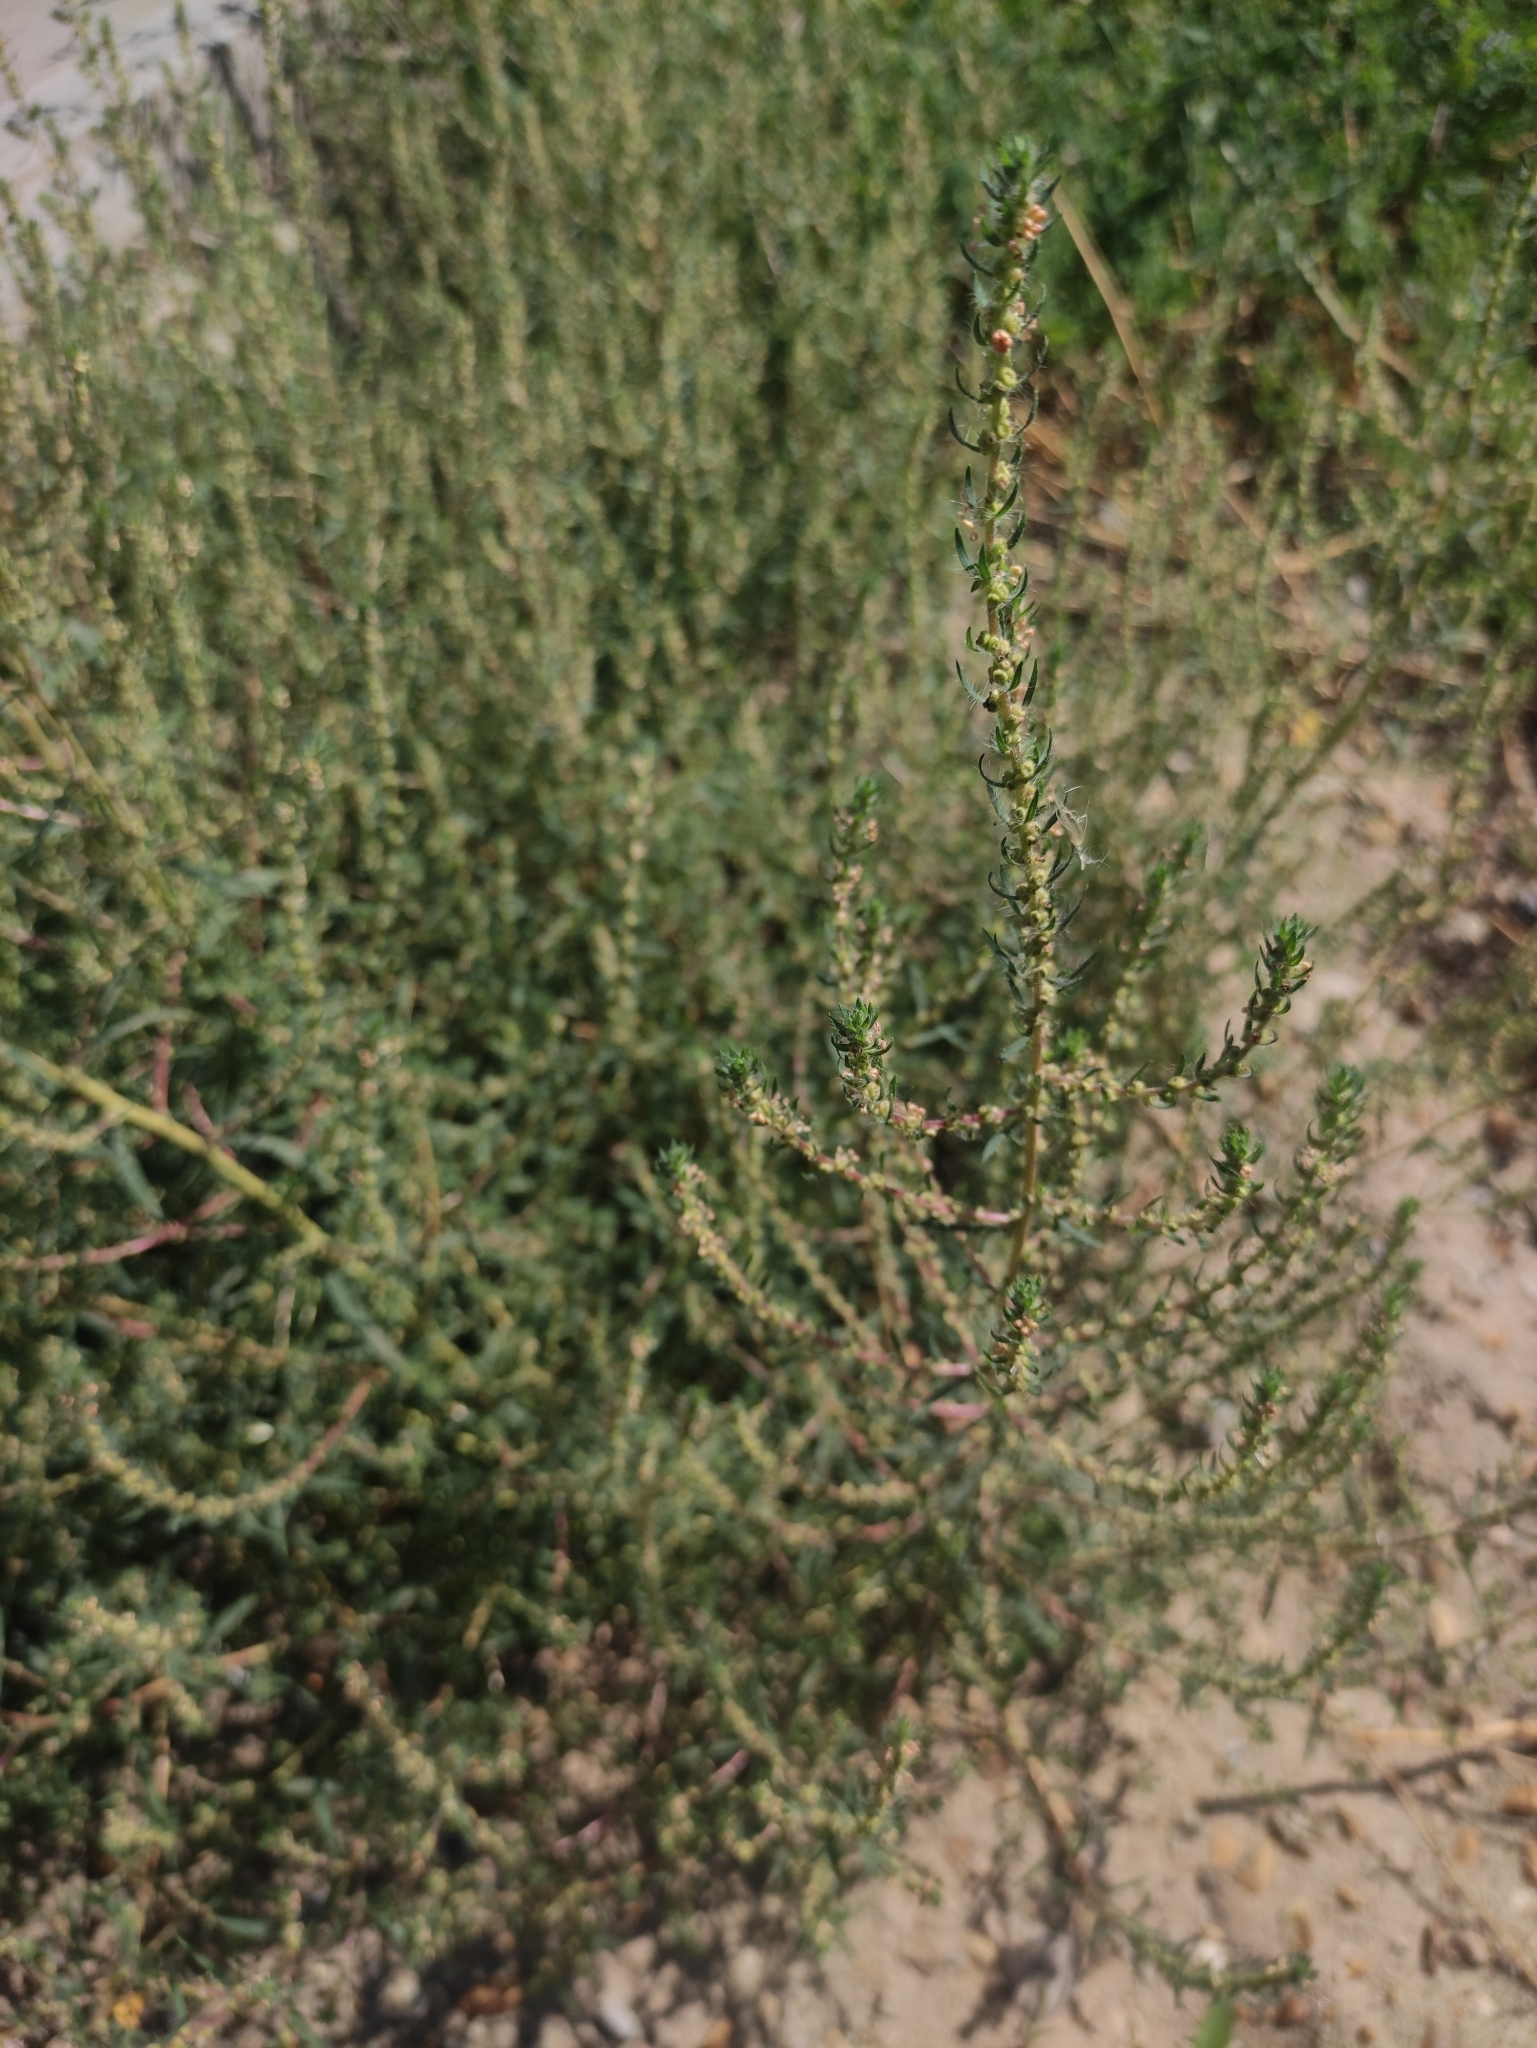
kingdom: Plantae
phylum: Tracheophyta
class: Magnoliopsida
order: Caryophyllales
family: Amaranthaceae
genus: Bassia
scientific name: Bassia scoparia
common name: Belvedere
